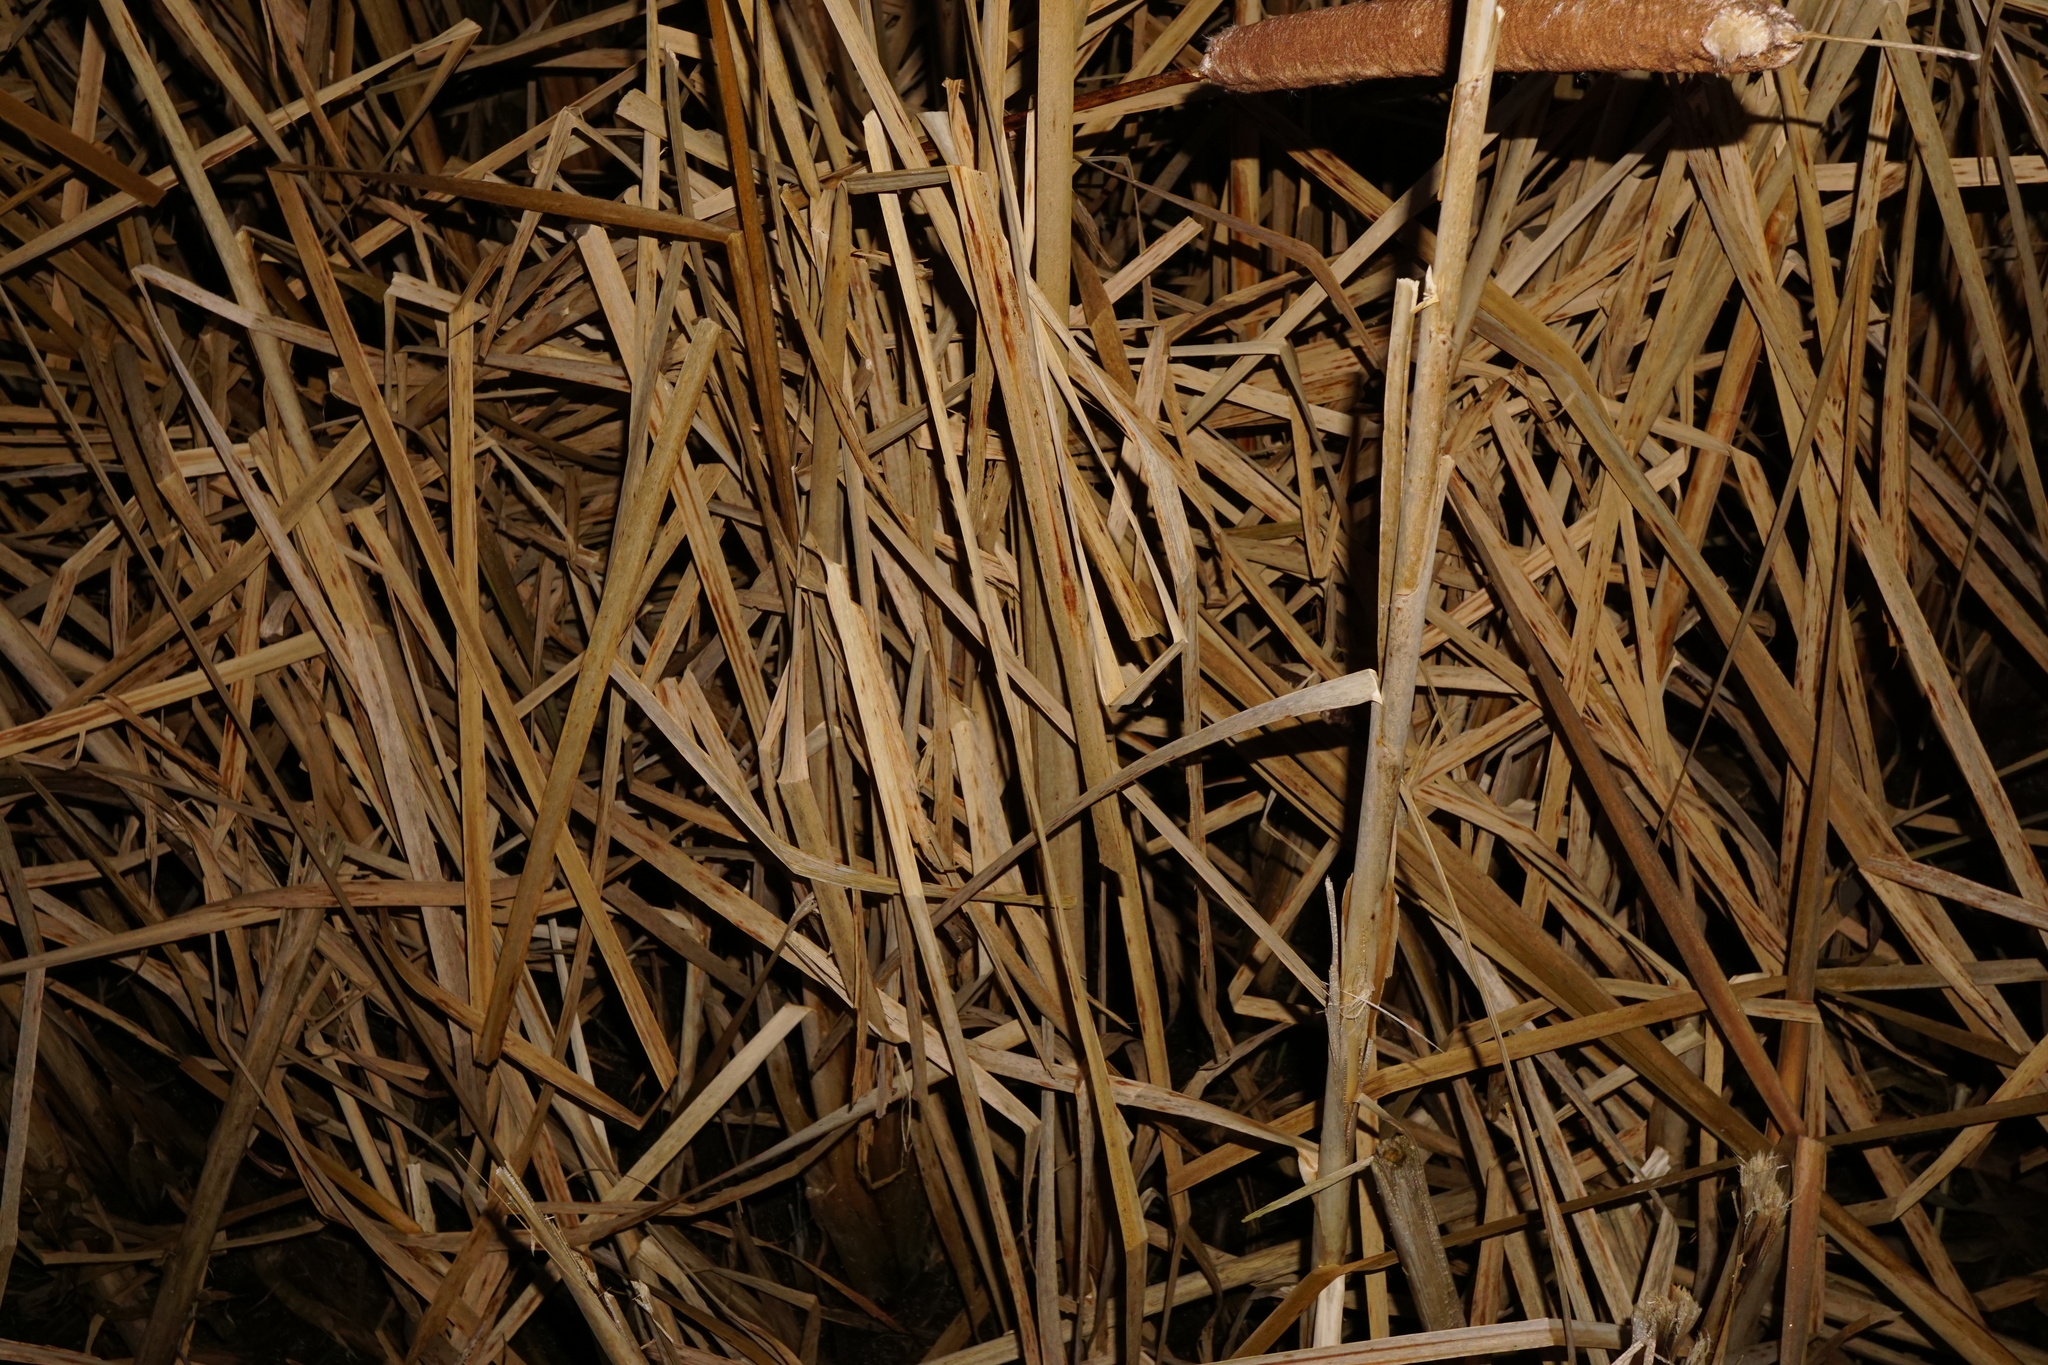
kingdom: Plantae
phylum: Tracheophyta
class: Liliopsida
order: Poales
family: Typhaceae
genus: Typha
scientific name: Typha latifolia
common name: Broadleaf cattail
